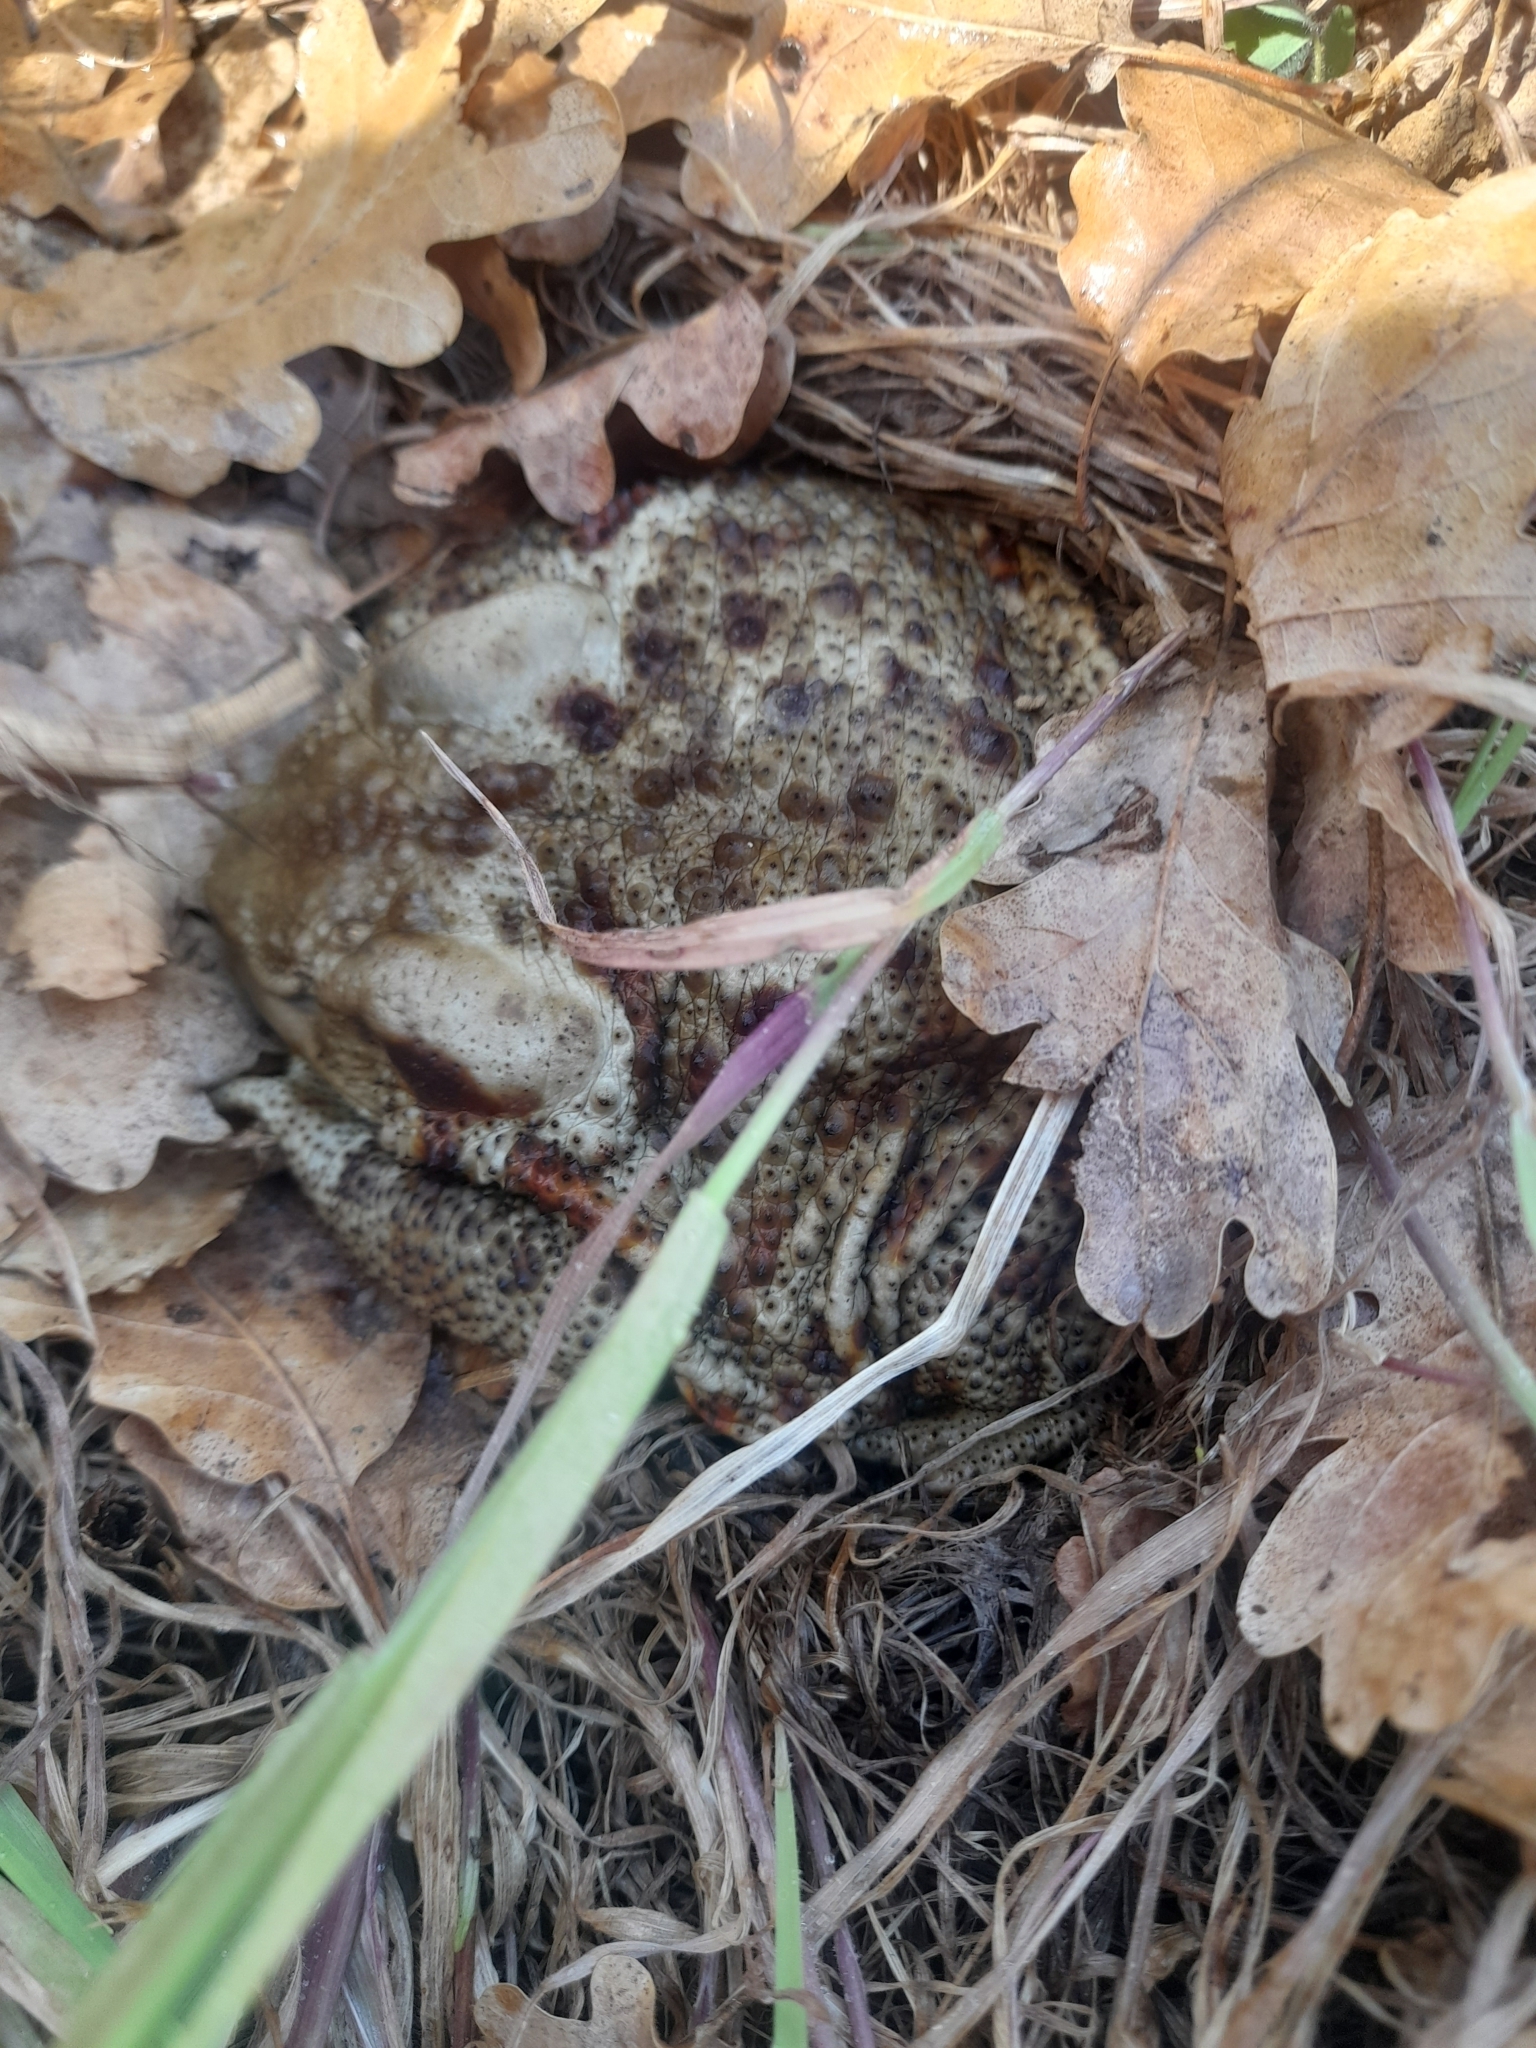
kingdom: Animalia
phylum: Chordata
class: Amphibia
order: Anura
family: Bufonidae
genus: Bufo
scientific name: Bufo bufo
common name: Common toad
